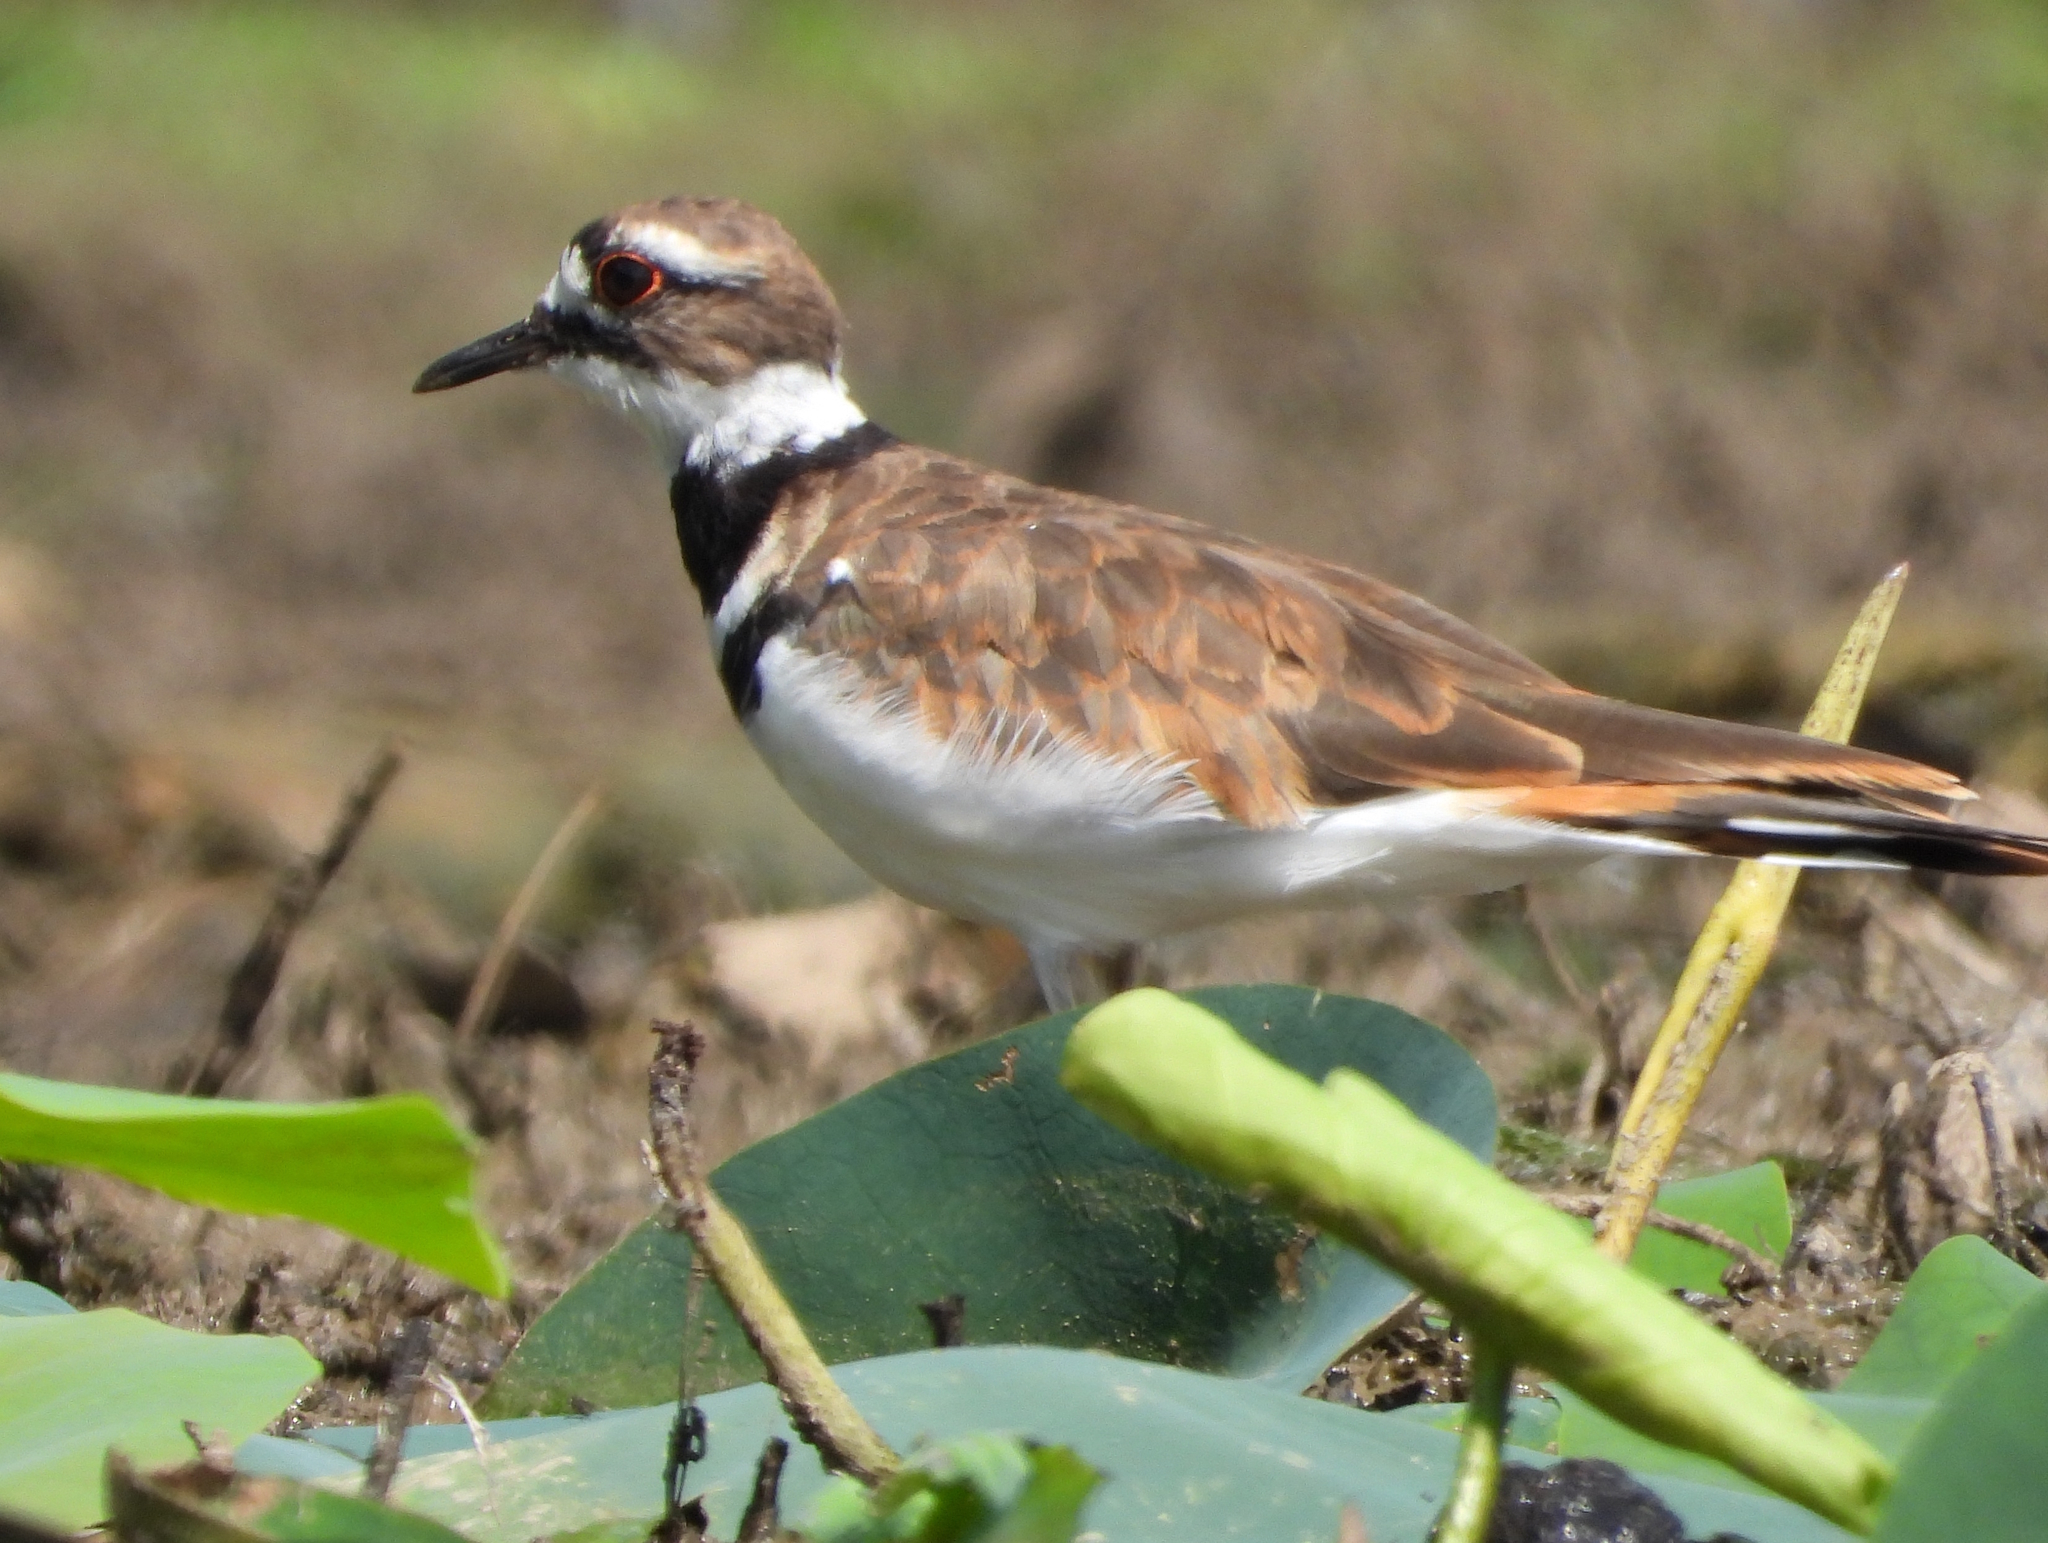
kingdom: Animalia
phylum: Chordata
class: Aves
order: Charadriiformes
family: Charadriidae
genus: Charadrius
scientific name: Charadrius vociferus
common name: Killdeer
